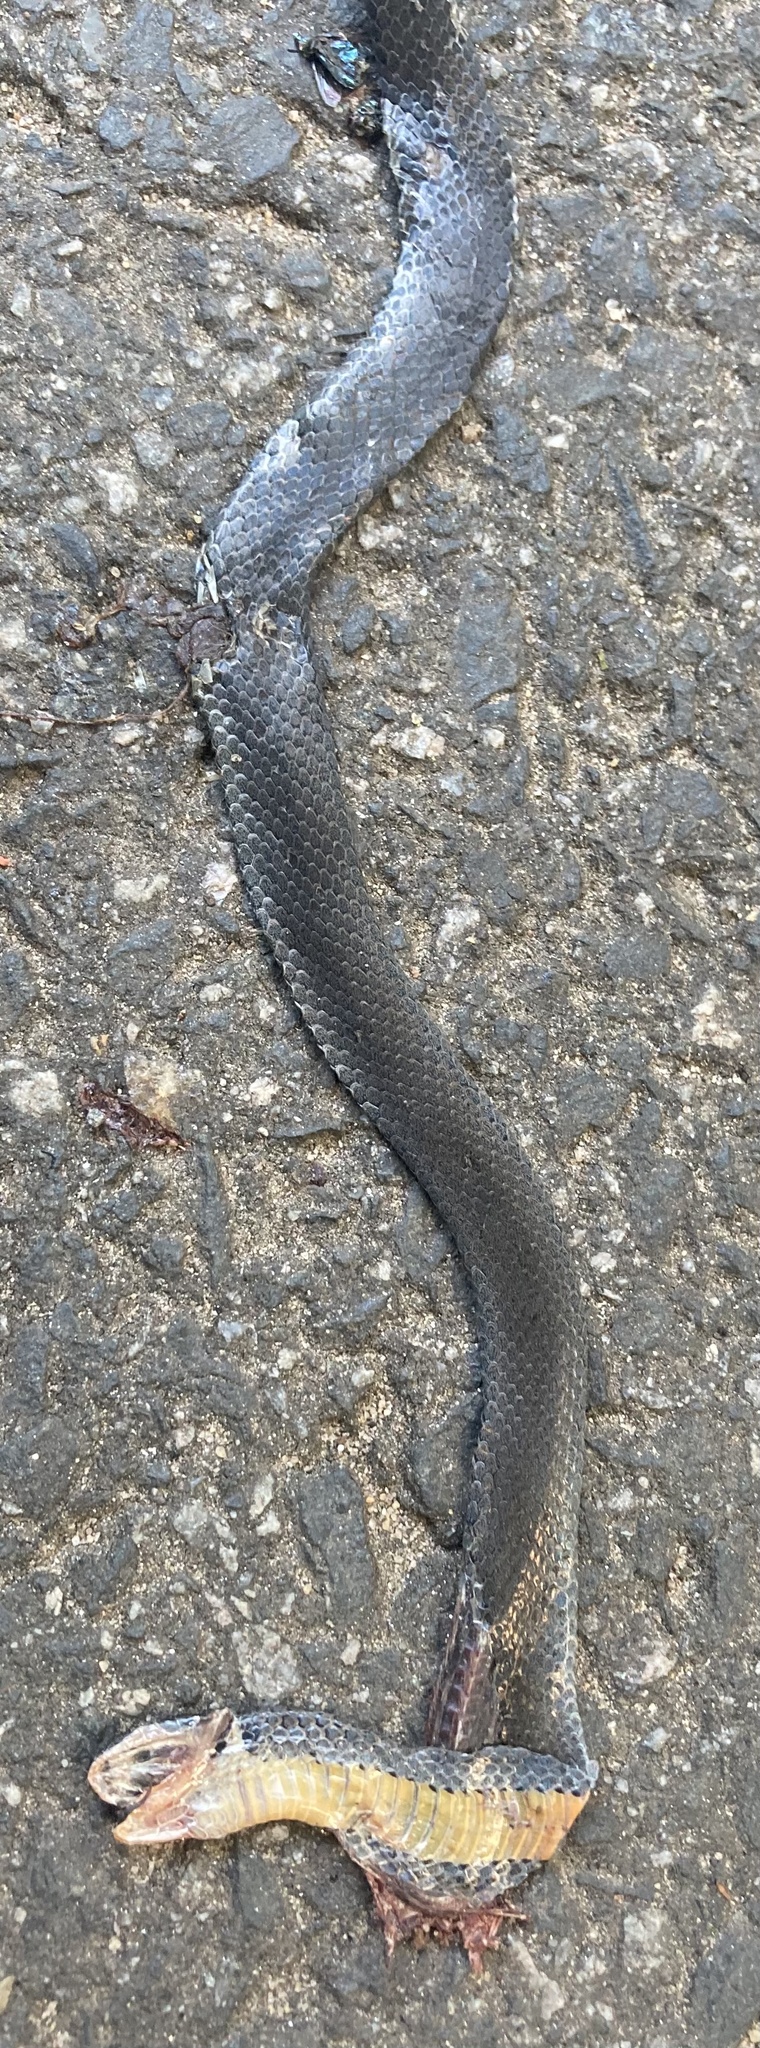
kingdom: Animalia
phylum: Chordata
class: Squamata
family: Colubridae
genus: Diadophis
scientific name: Diadophis punctatus
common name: Ringneck snake
